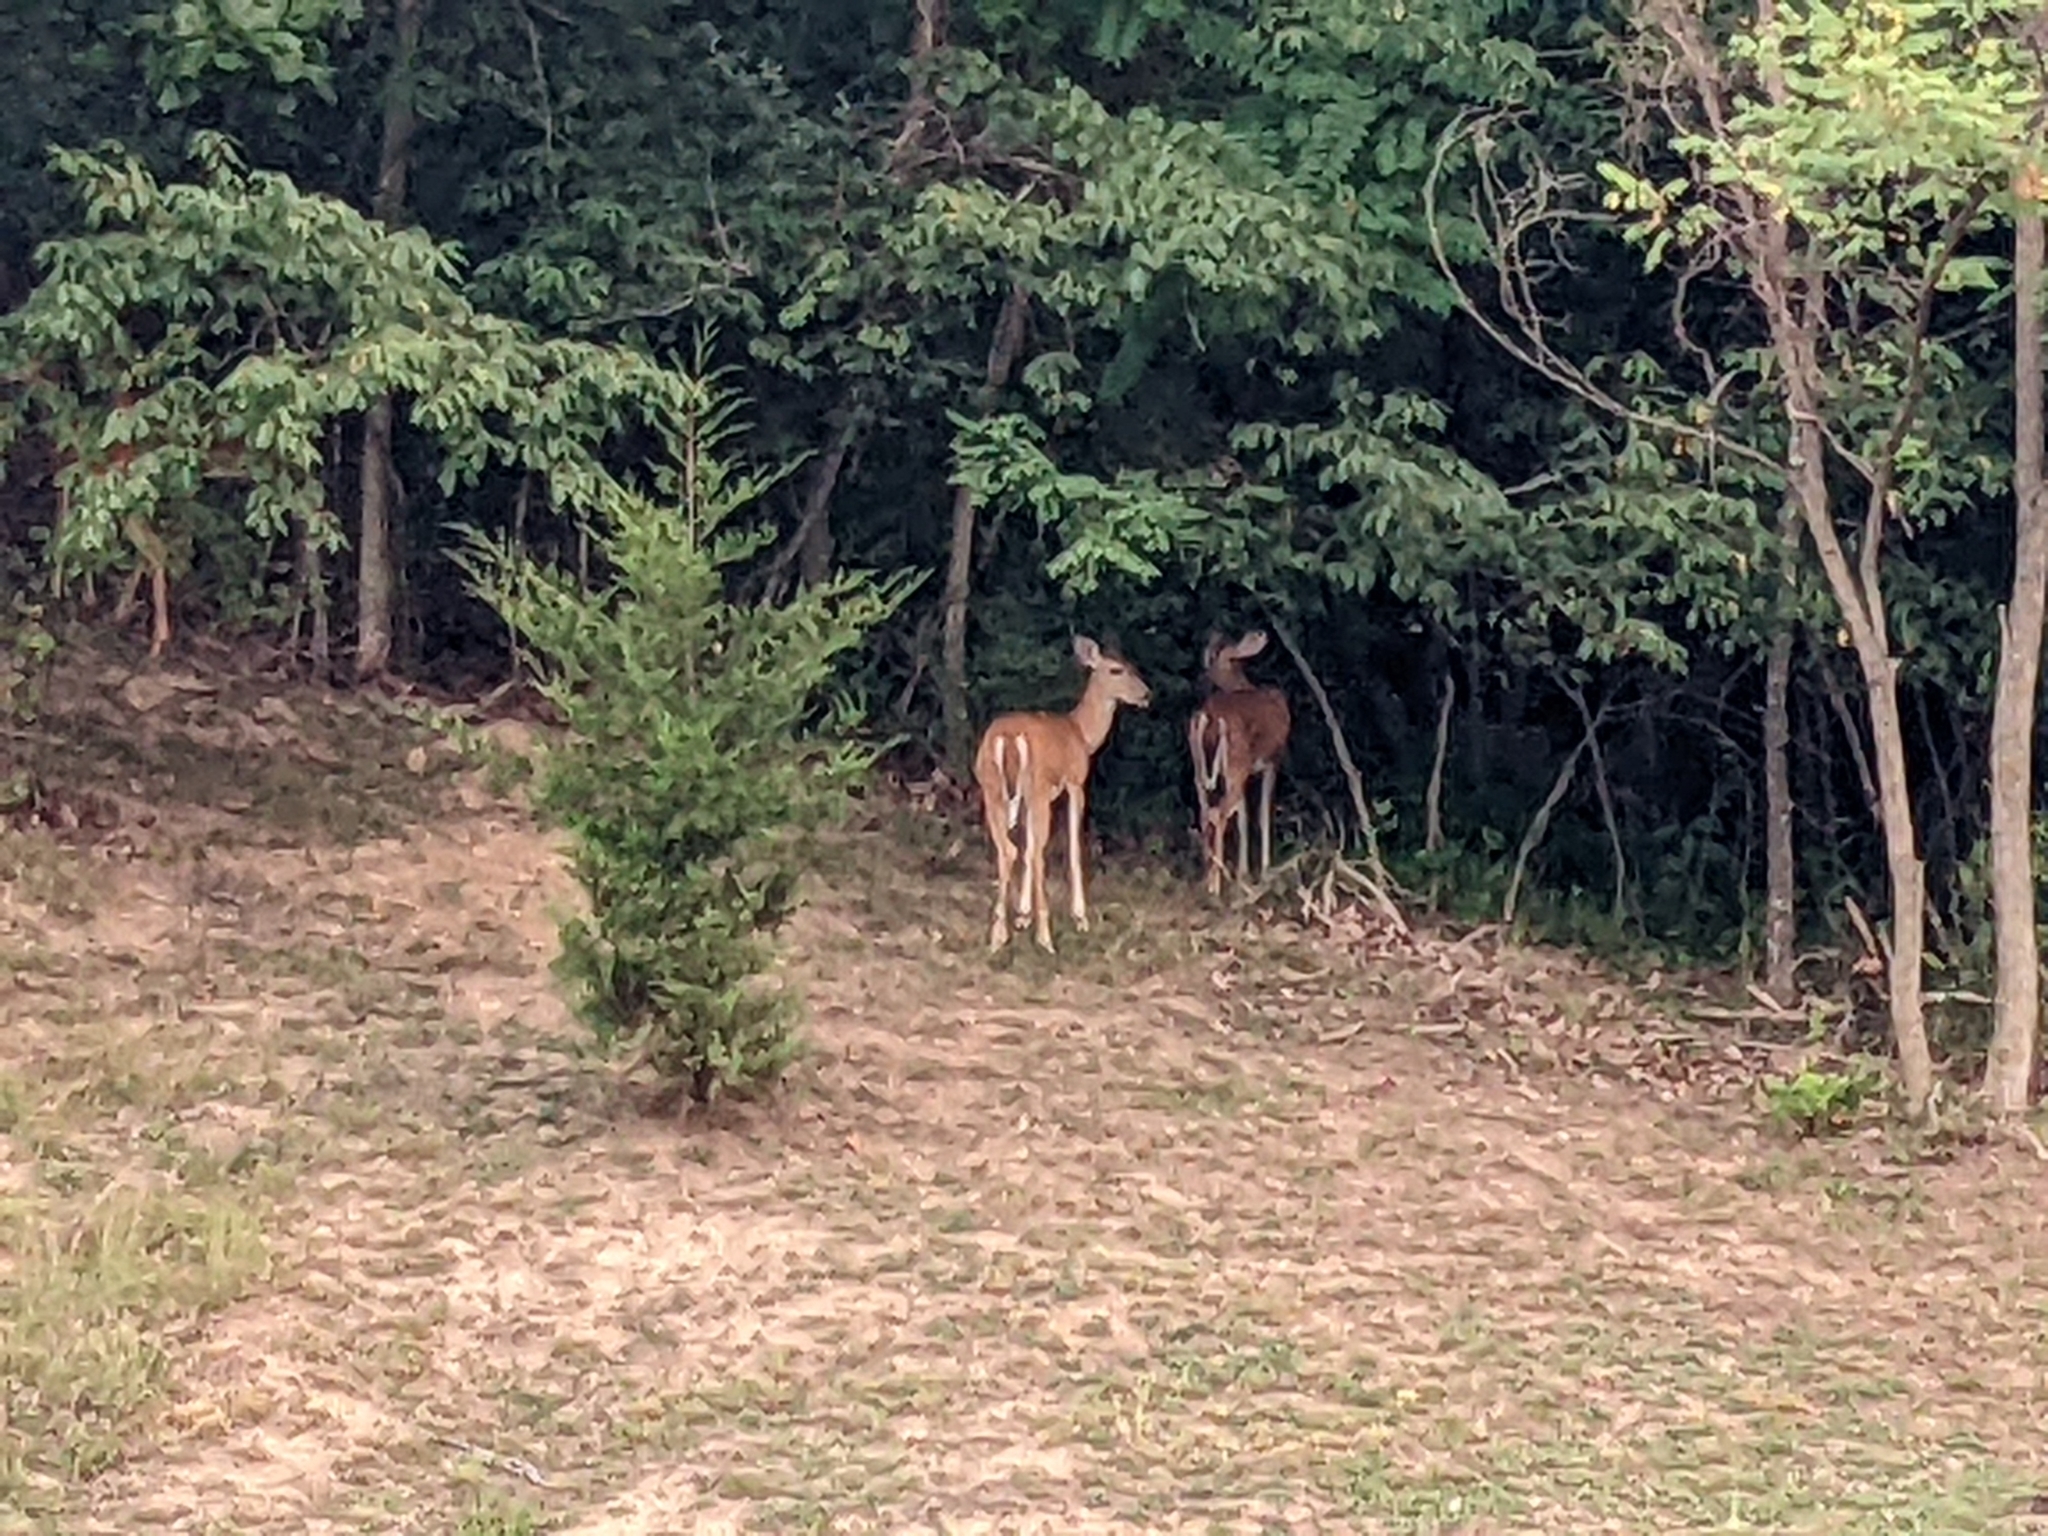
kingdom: Animalia
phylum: Chordata
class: Mammalia
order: Artiodactyla
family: Cervidae
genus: Odocoileus
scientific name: Odocoileus virginianus
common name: White-tailed deer
